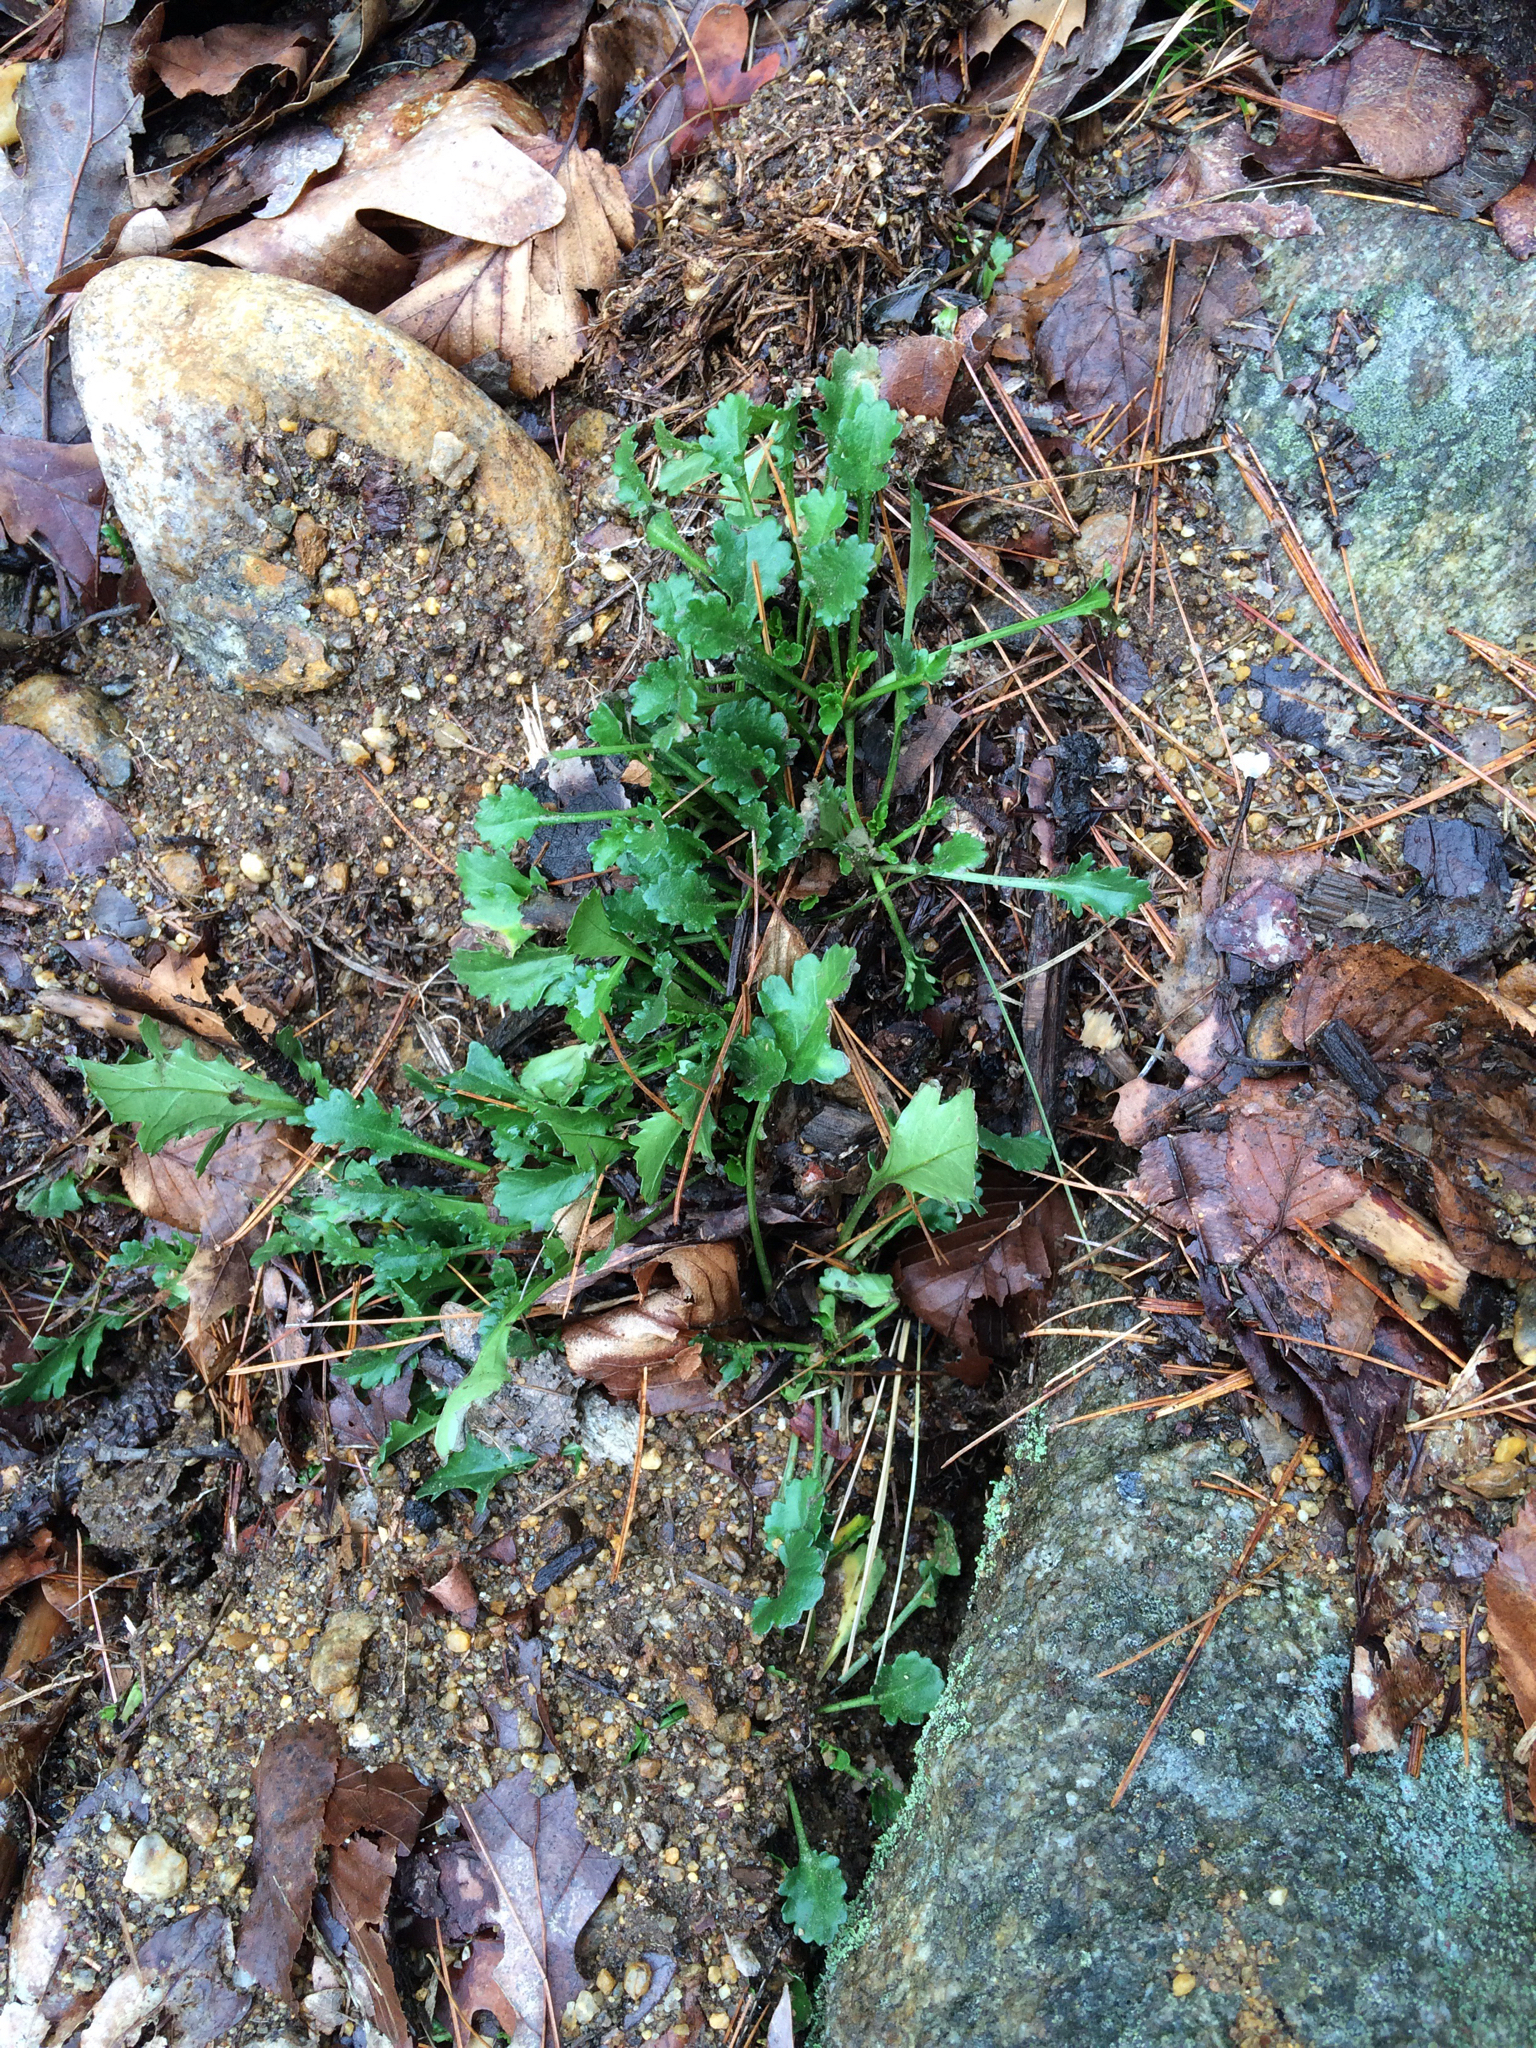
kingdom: Plantae
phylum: Tracheophyta
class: Magnoliopsida
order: Asterales
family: Asteraceae
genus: Leucanthemum
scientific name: Leucanthemum vulgare
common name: Oxeye daisy
